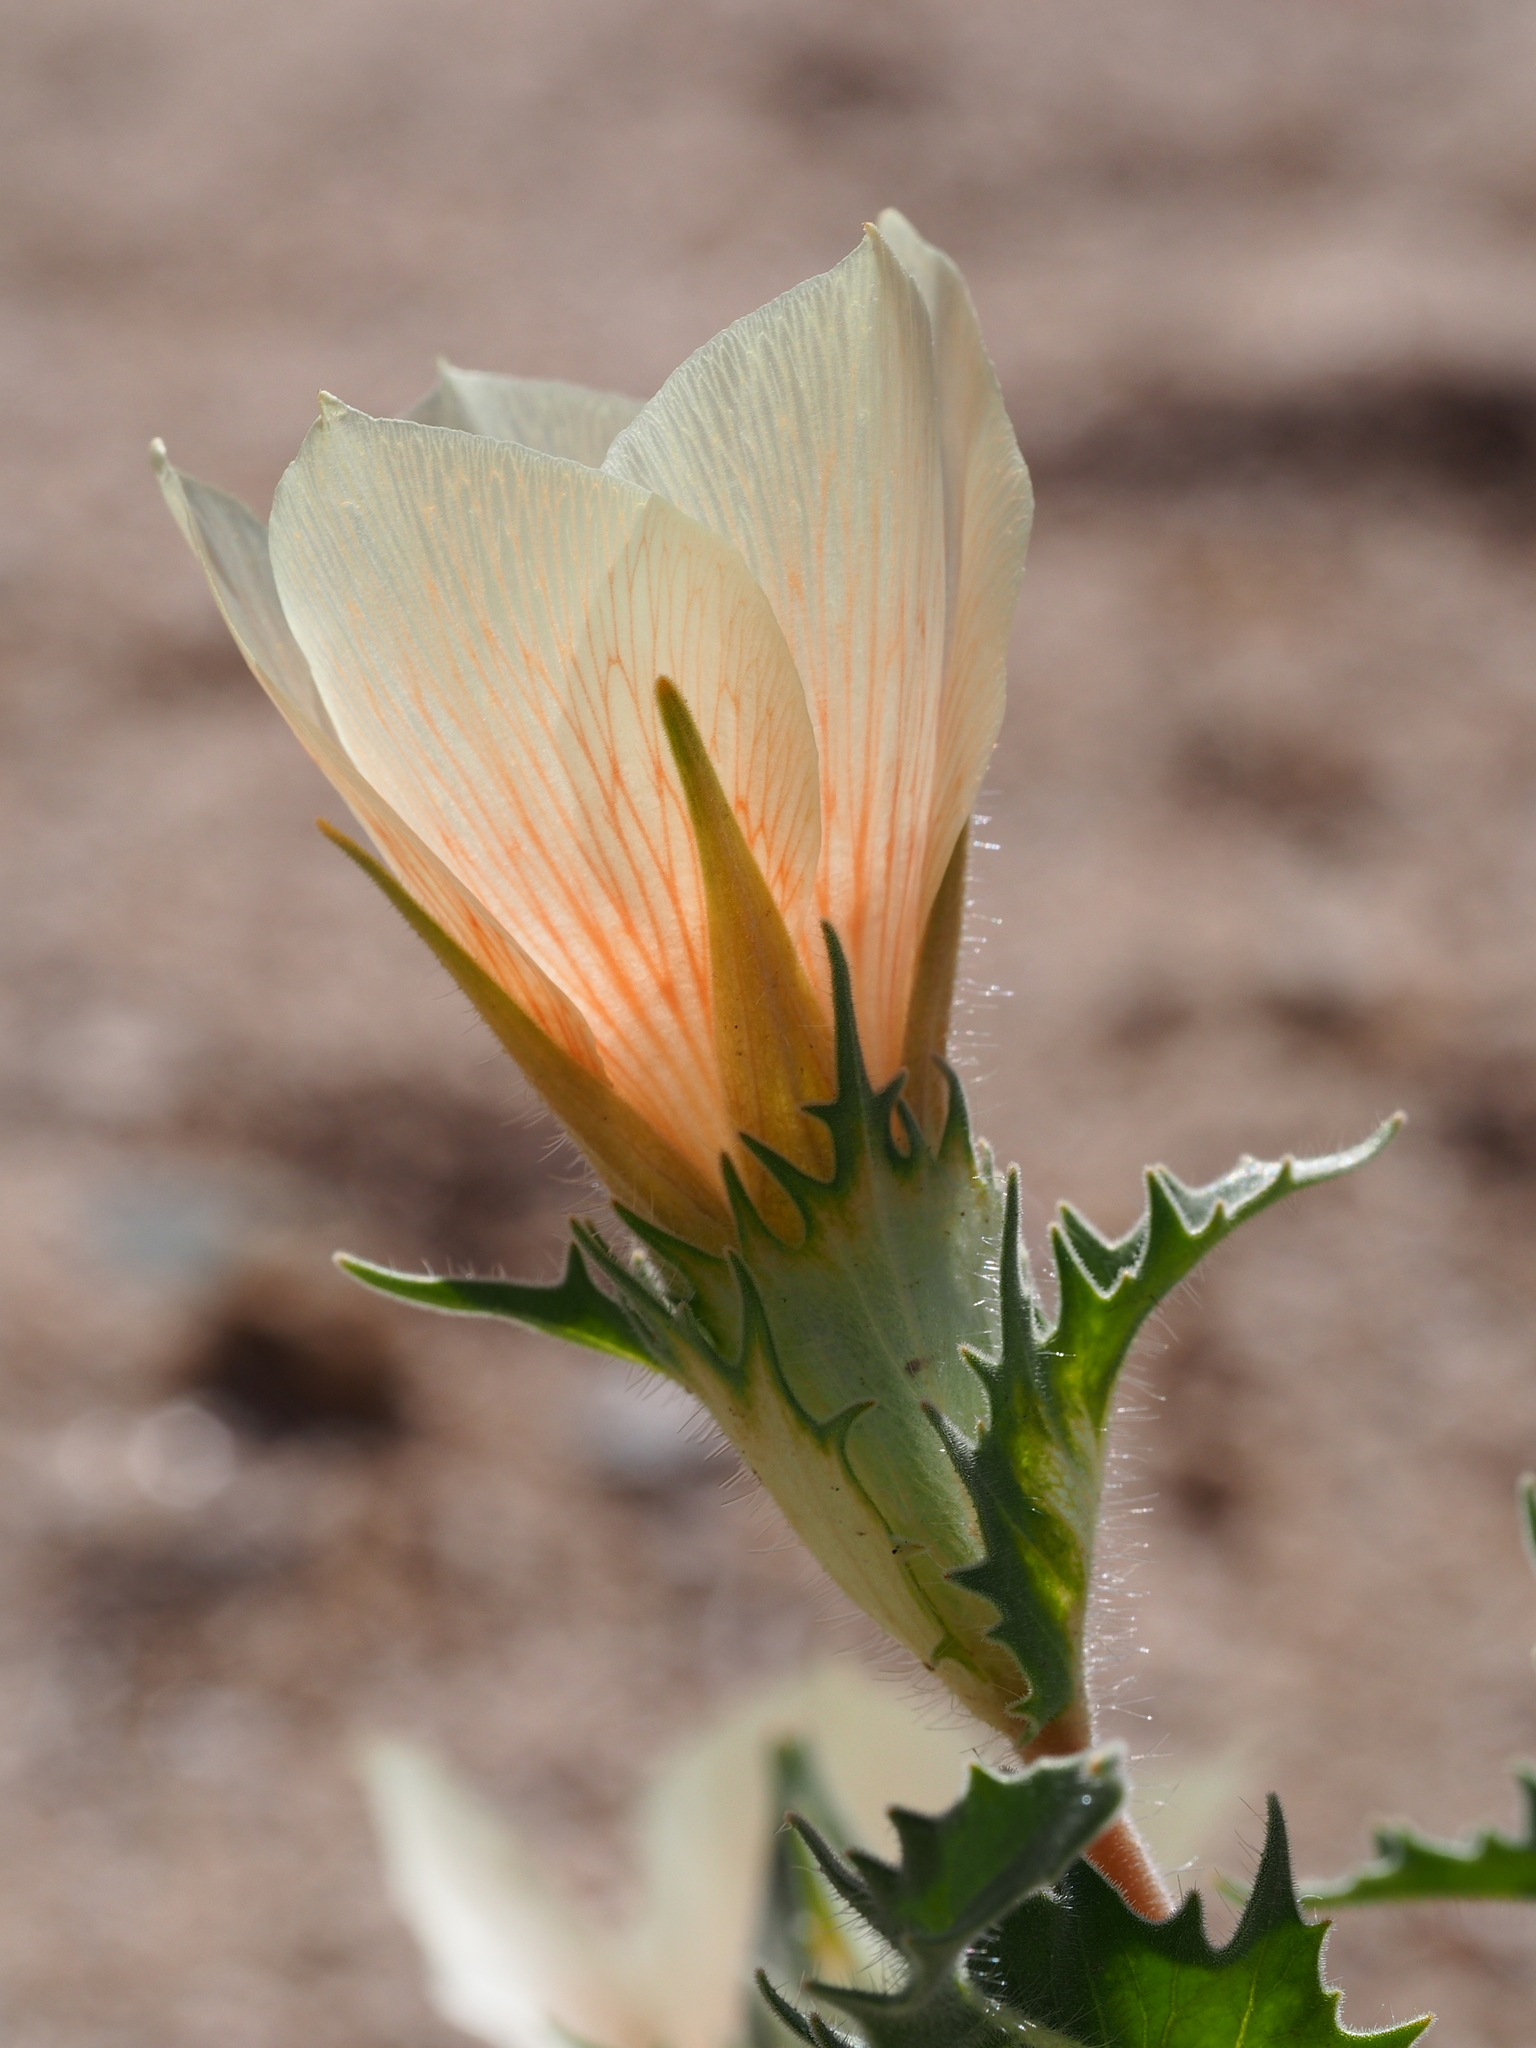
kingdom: Plantae
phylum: Tracheophyta
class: Magnoliopsida
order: Cornales
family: Loasaceae
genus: Mentzelia
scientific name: Mentzelia involucrata
